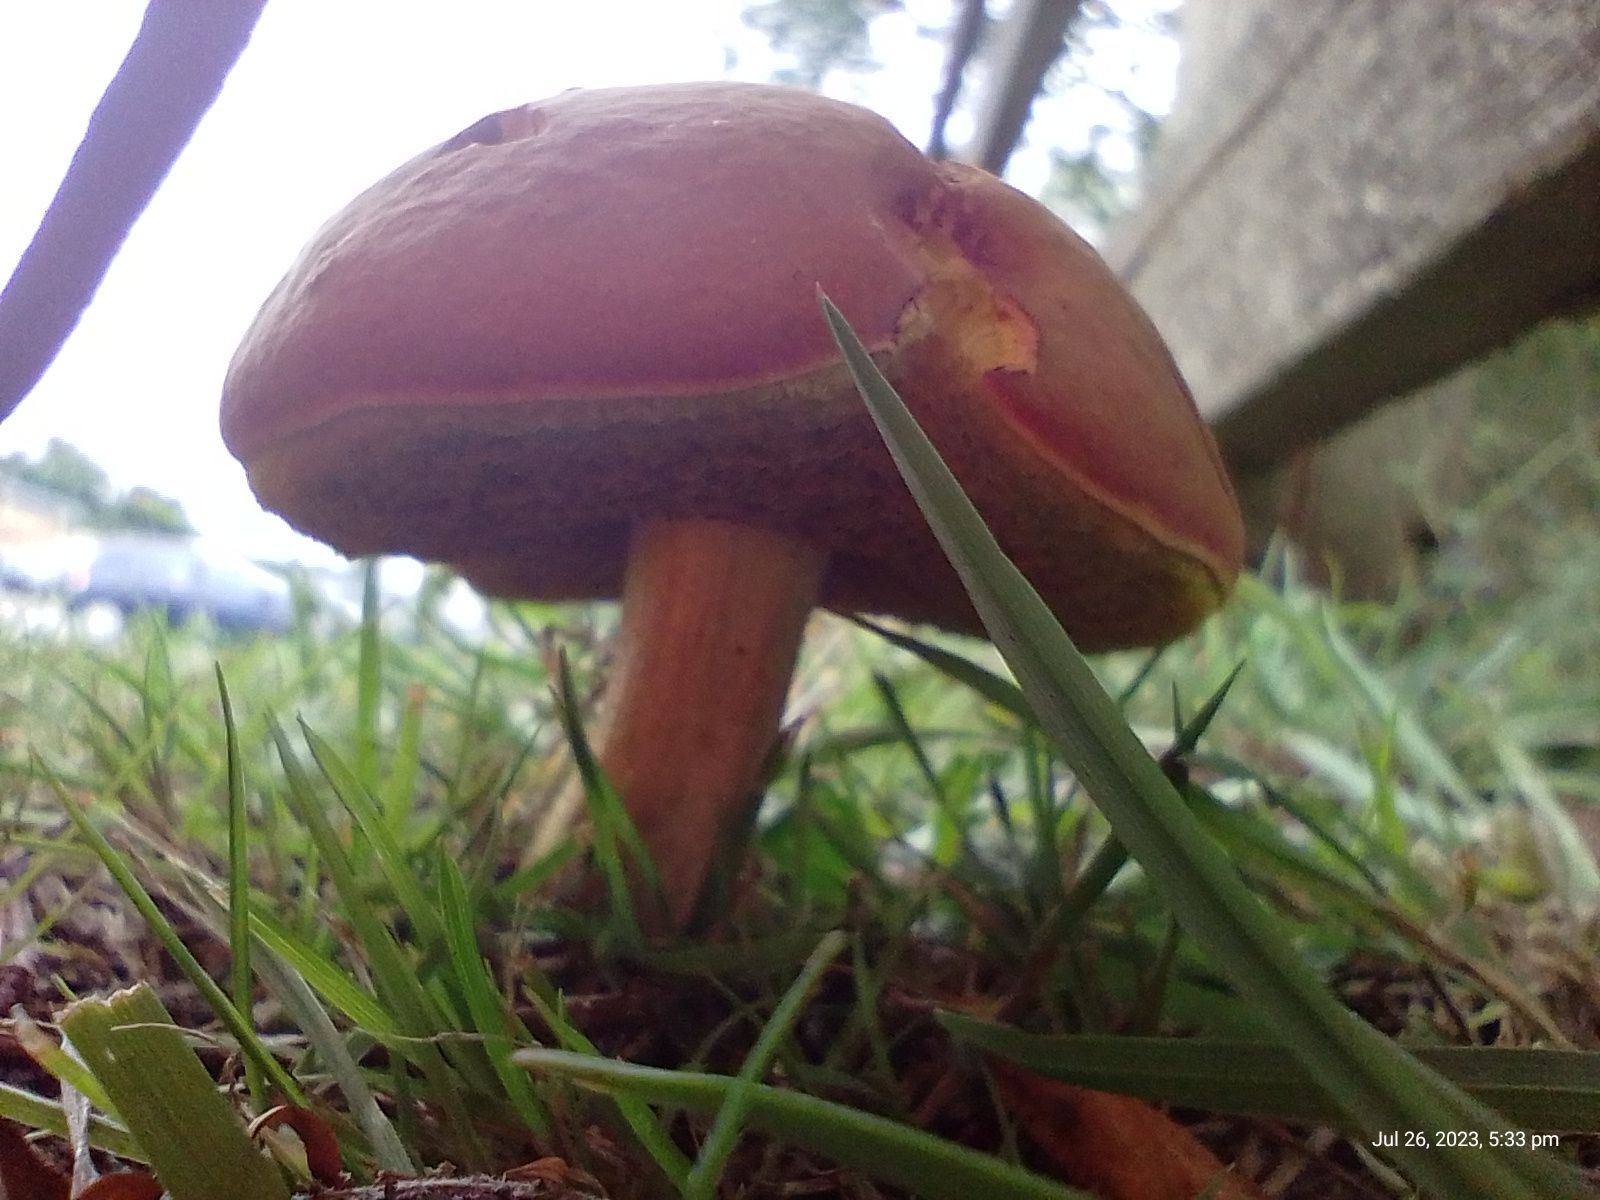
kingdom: Fungi
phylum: Basidiomycota
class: Agaricomycetes
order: Boletales
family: Boletaceae
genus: Xerocomellus
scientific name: Xerocomellus chrysenteron
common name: Red-cracking bolete
